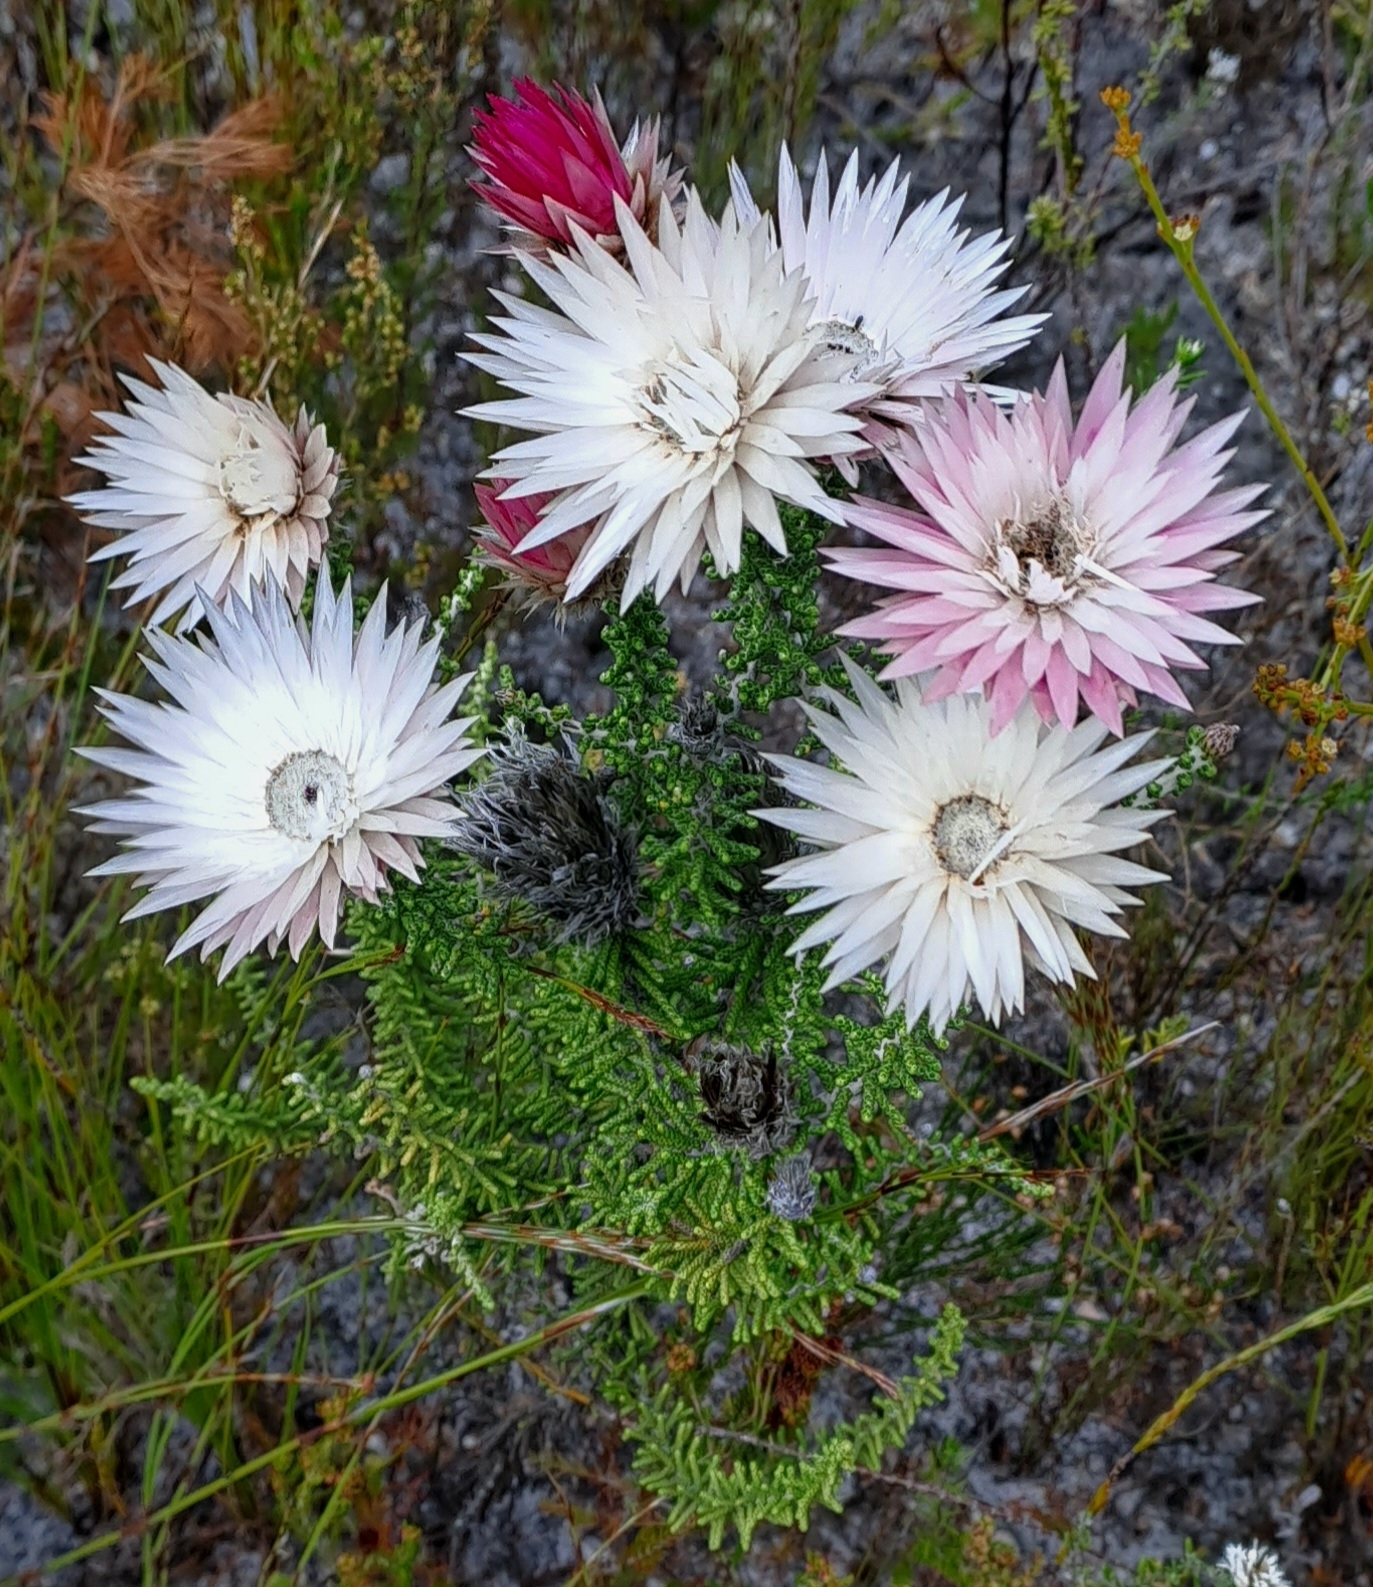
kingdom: Plantae
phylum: Tracheophyta
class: Magnoliopsida
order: Asterales
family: Asteraceae
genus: Phaenocoma
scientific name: Phaenocoma prolifera
